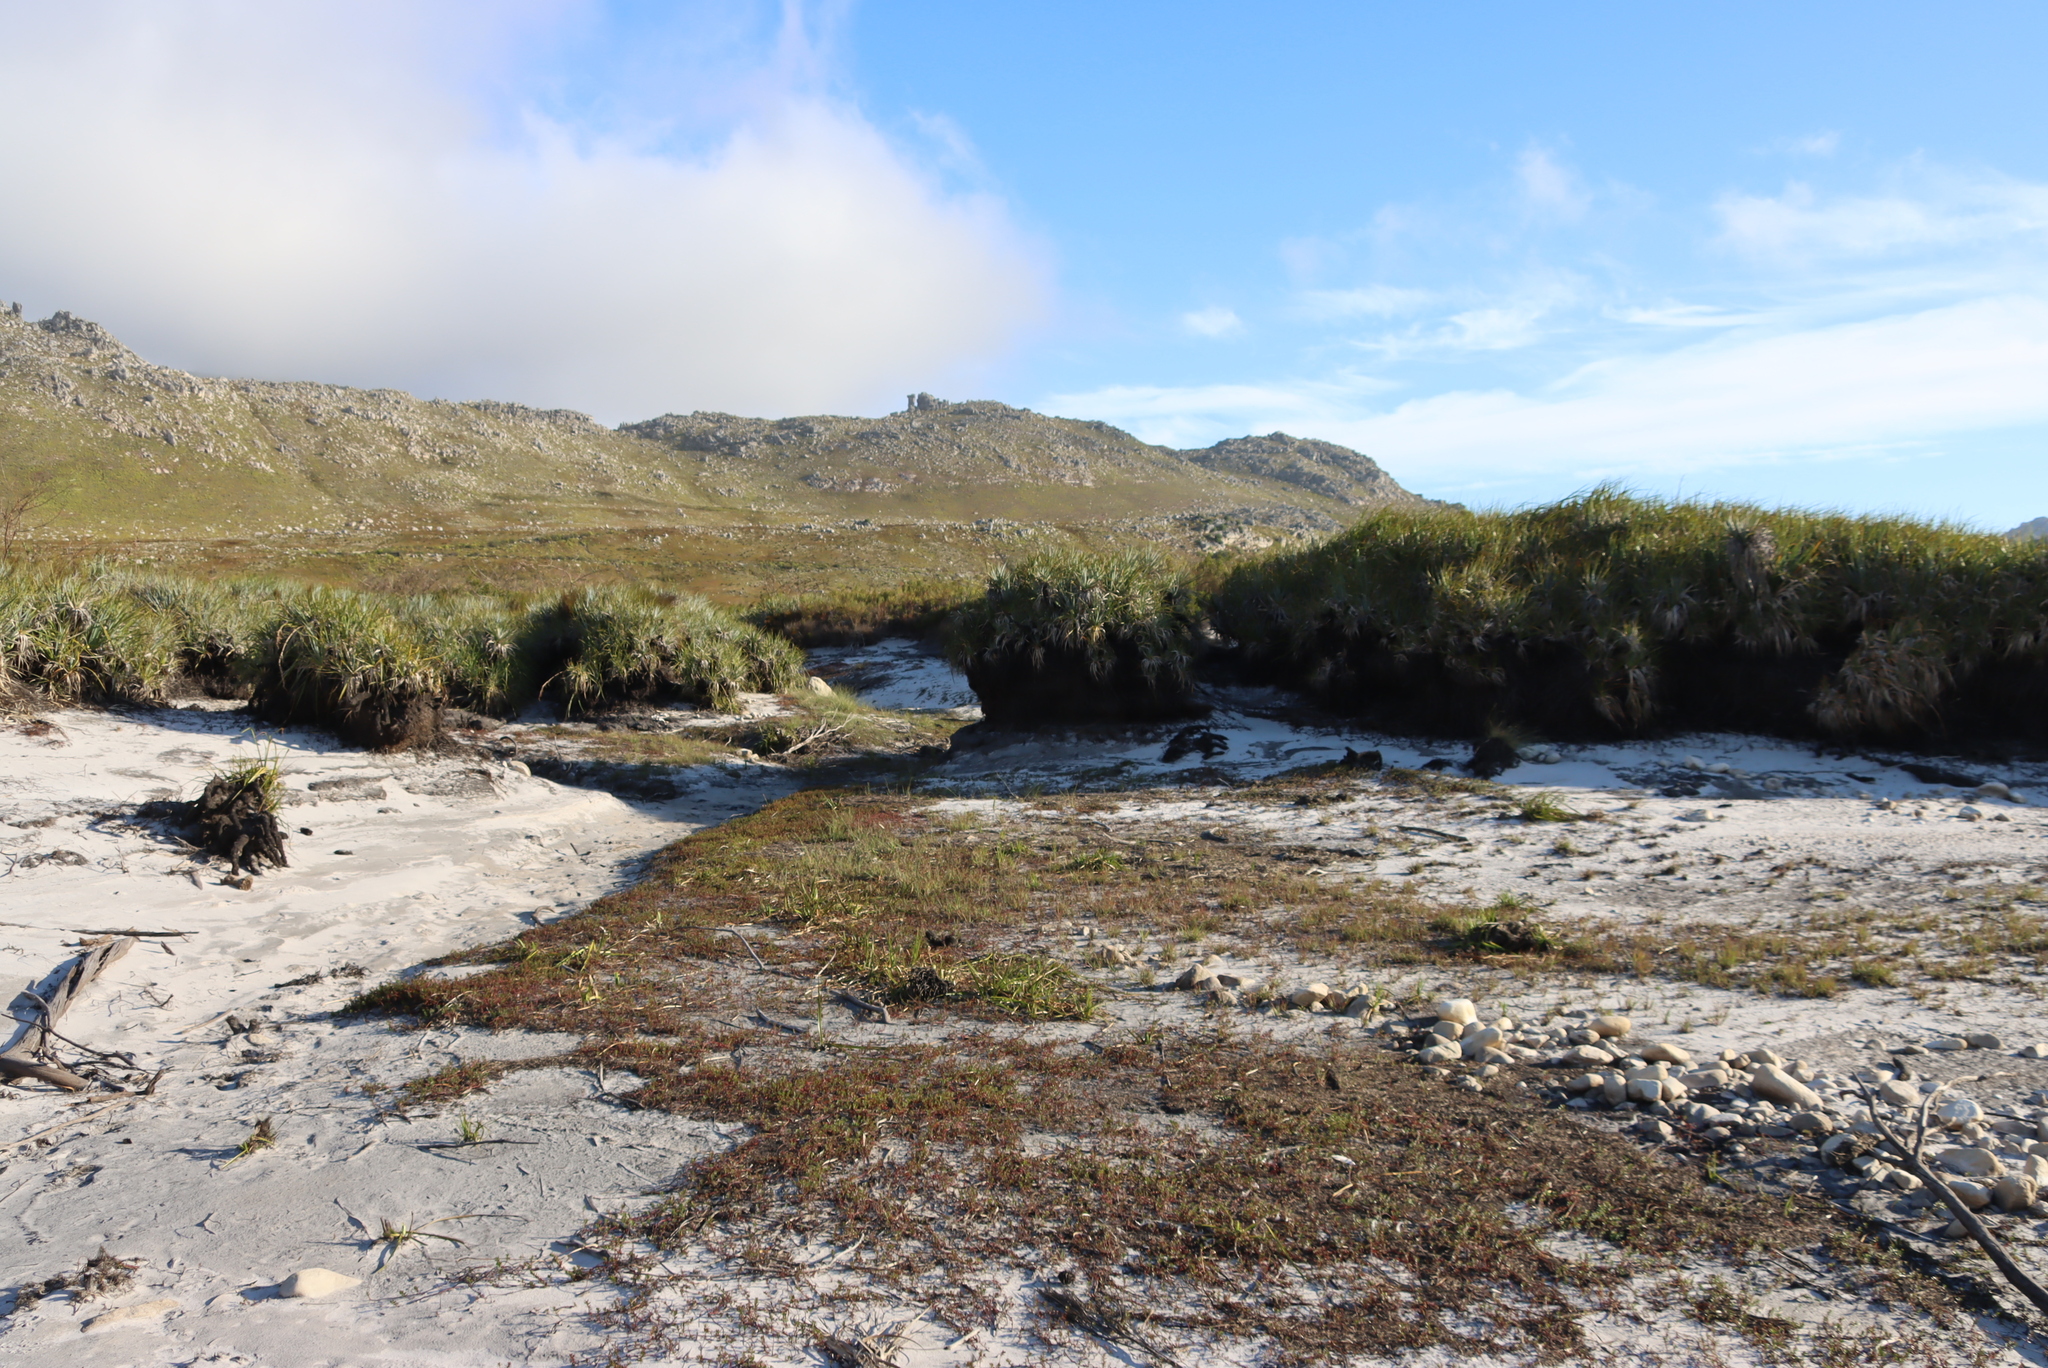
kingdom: Plantae
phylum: Tracheophyta
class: Liliopsida
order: Poales
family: Thurniaceae
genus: Prionium
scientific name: Prionium serratum
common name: Palmiet
